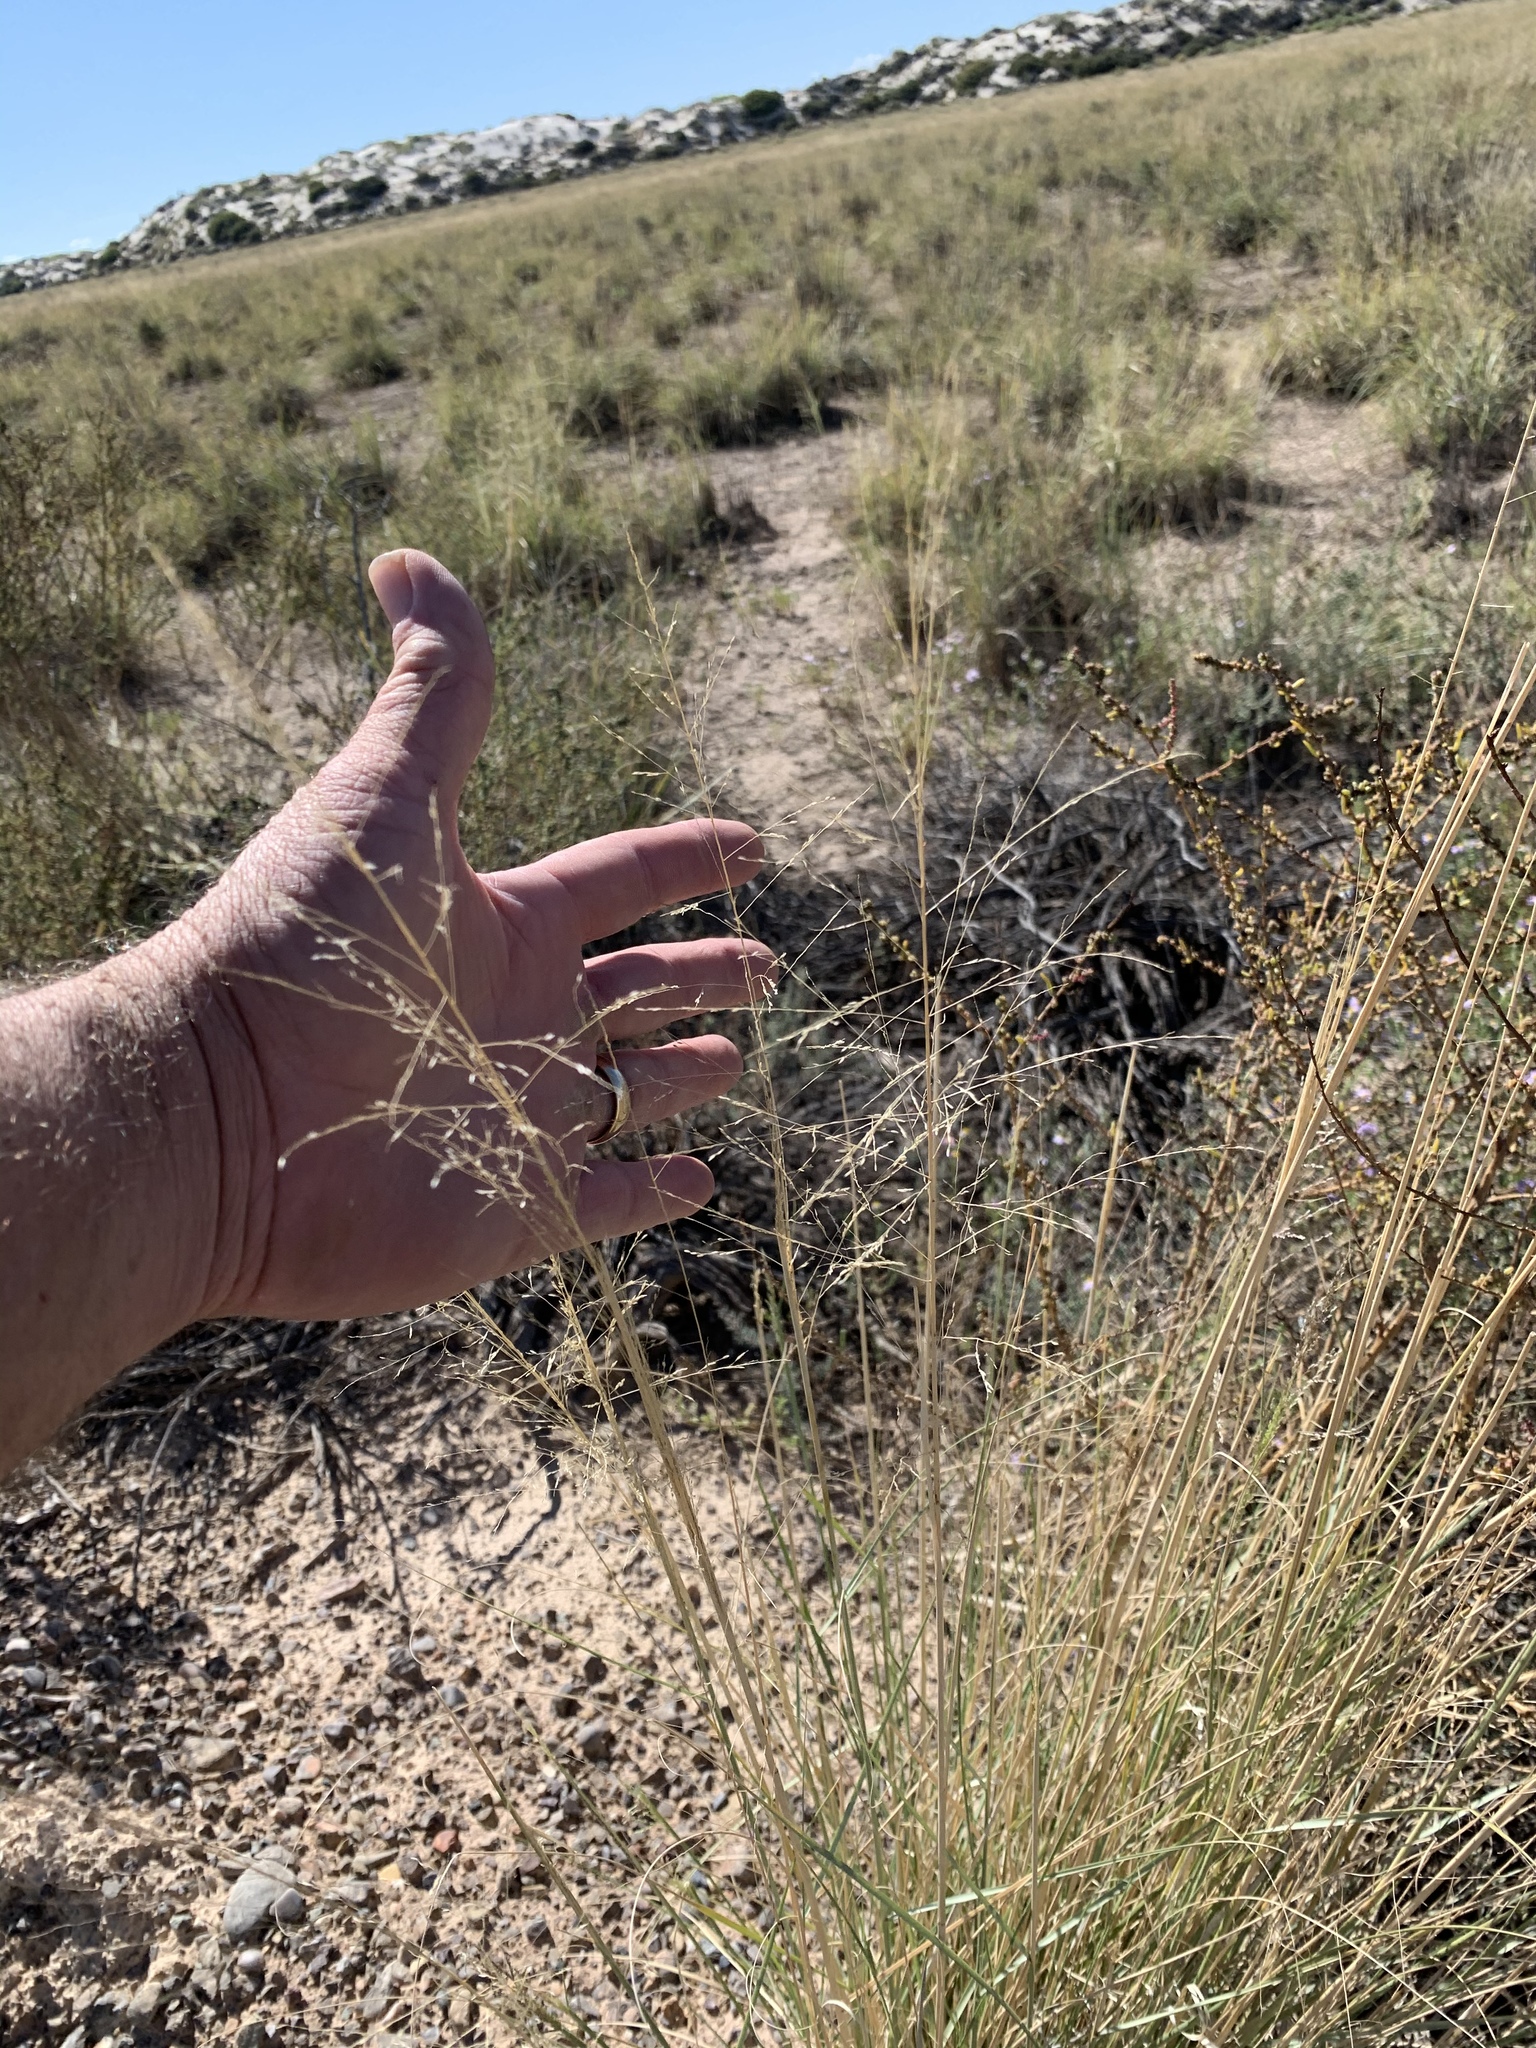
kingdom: Plantae
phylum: Tracheophyta
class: Liliopsida
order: Poales
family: Poaceae
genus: Sporobolus
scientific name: Sporobolus airoides
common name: Alkali sacaton
